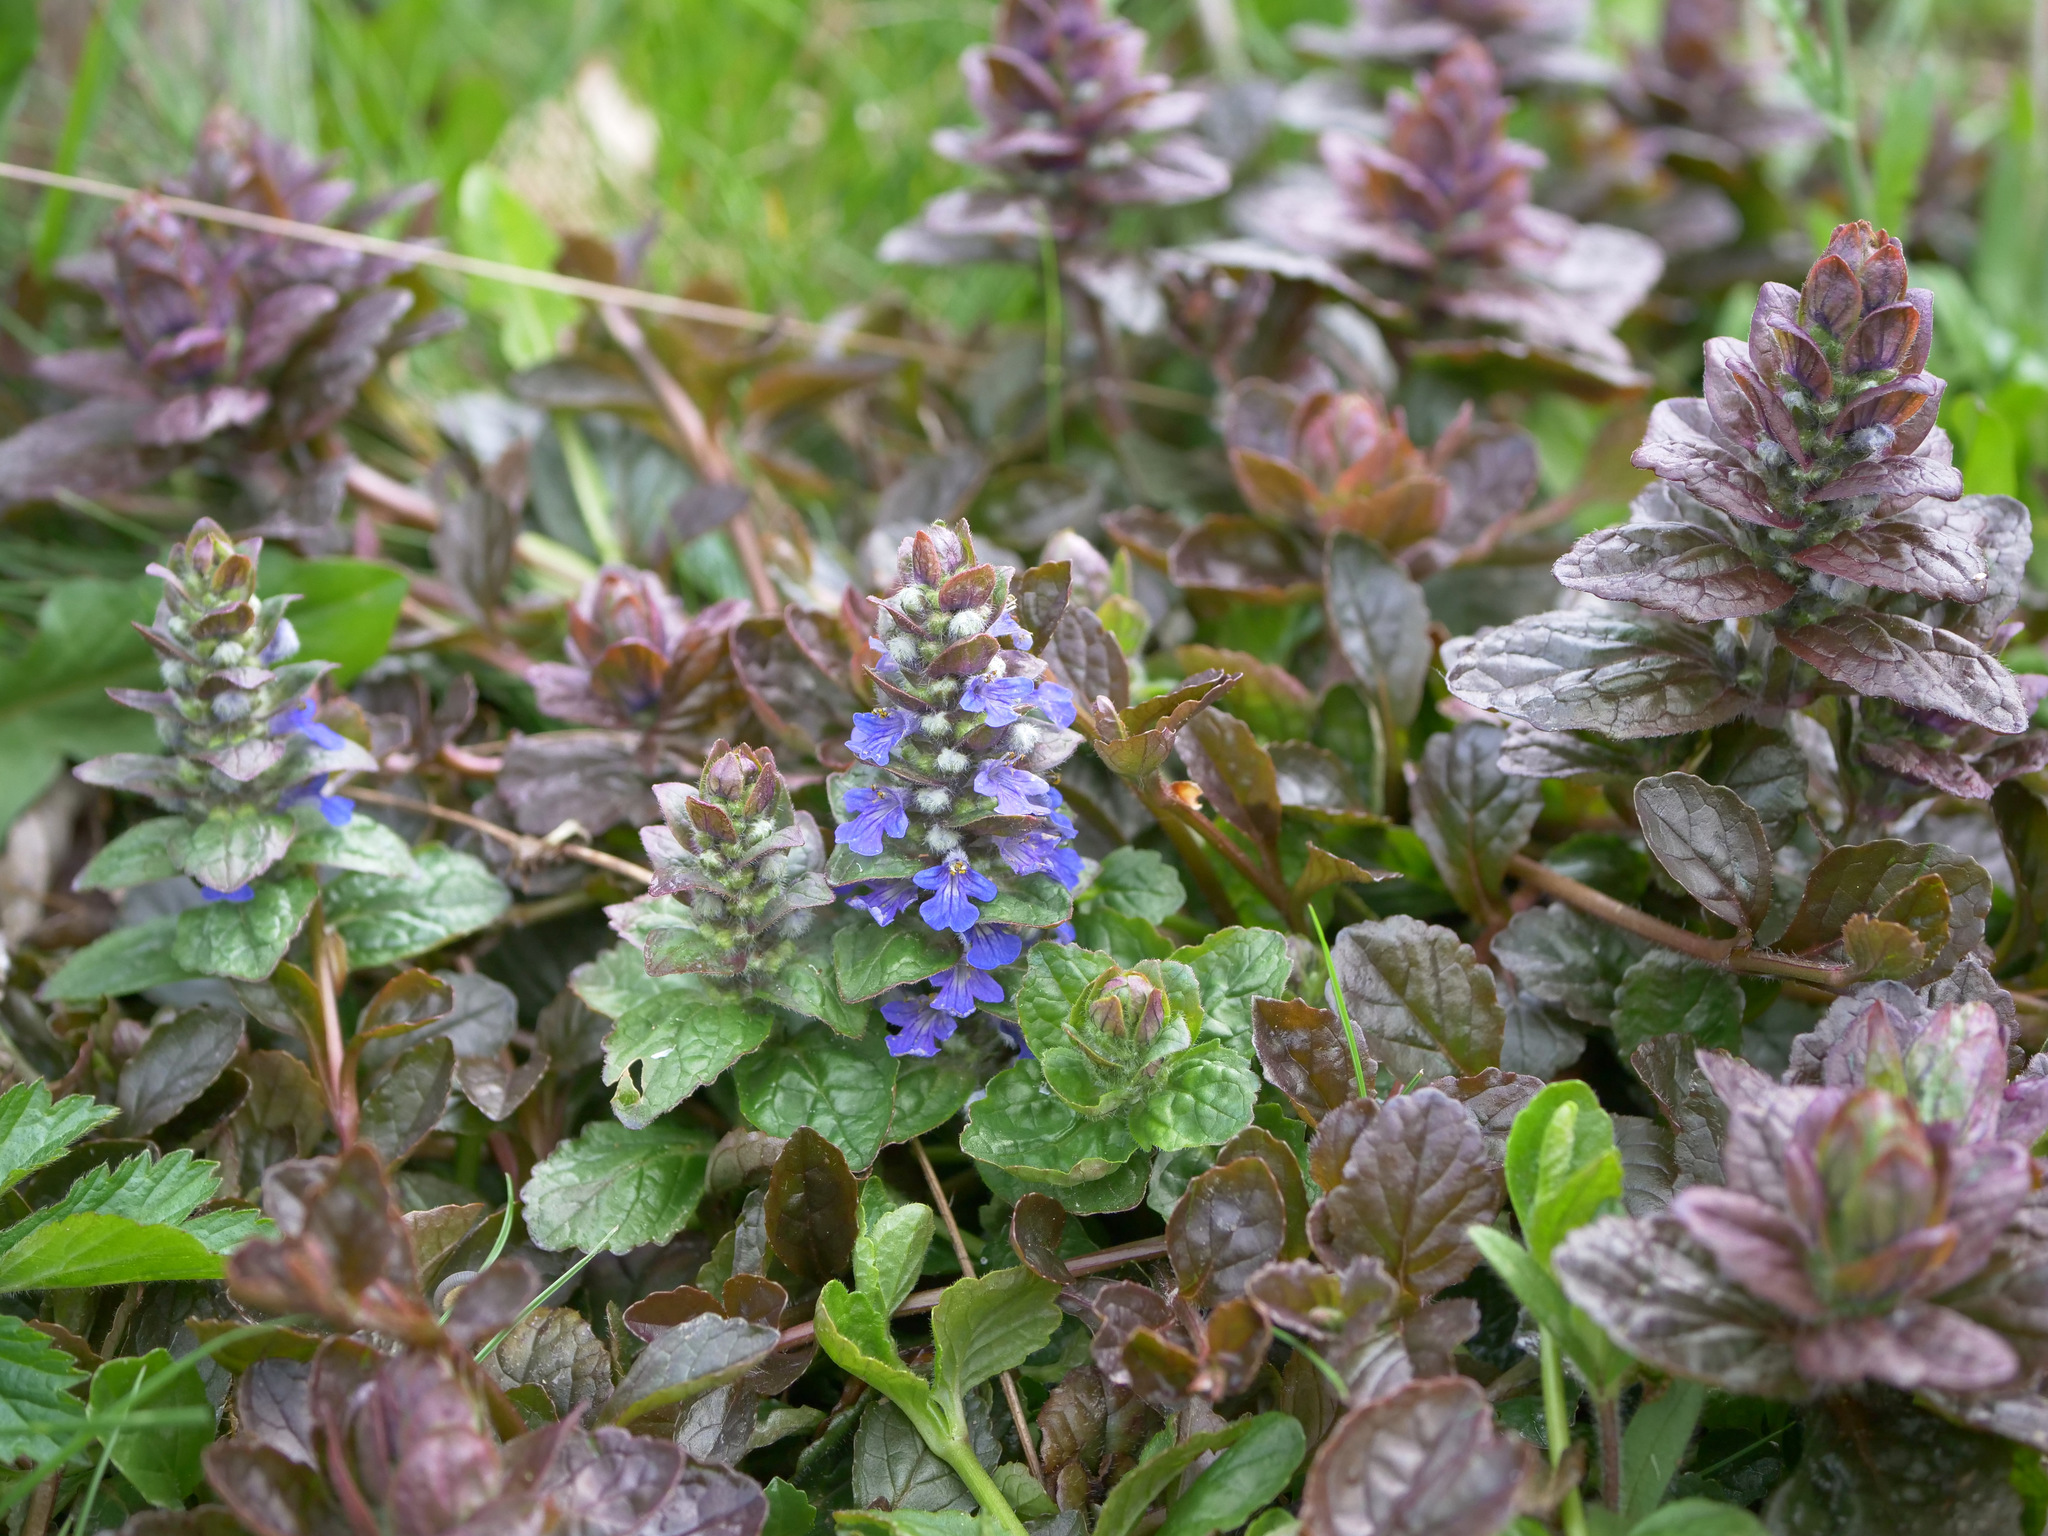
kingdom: Plantae
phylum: Tracheophyta
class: Magnoliopsida
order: Lamiales
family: Lamiaceae
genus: Ajuga
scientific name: Ajuga reptans
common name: Bugle
